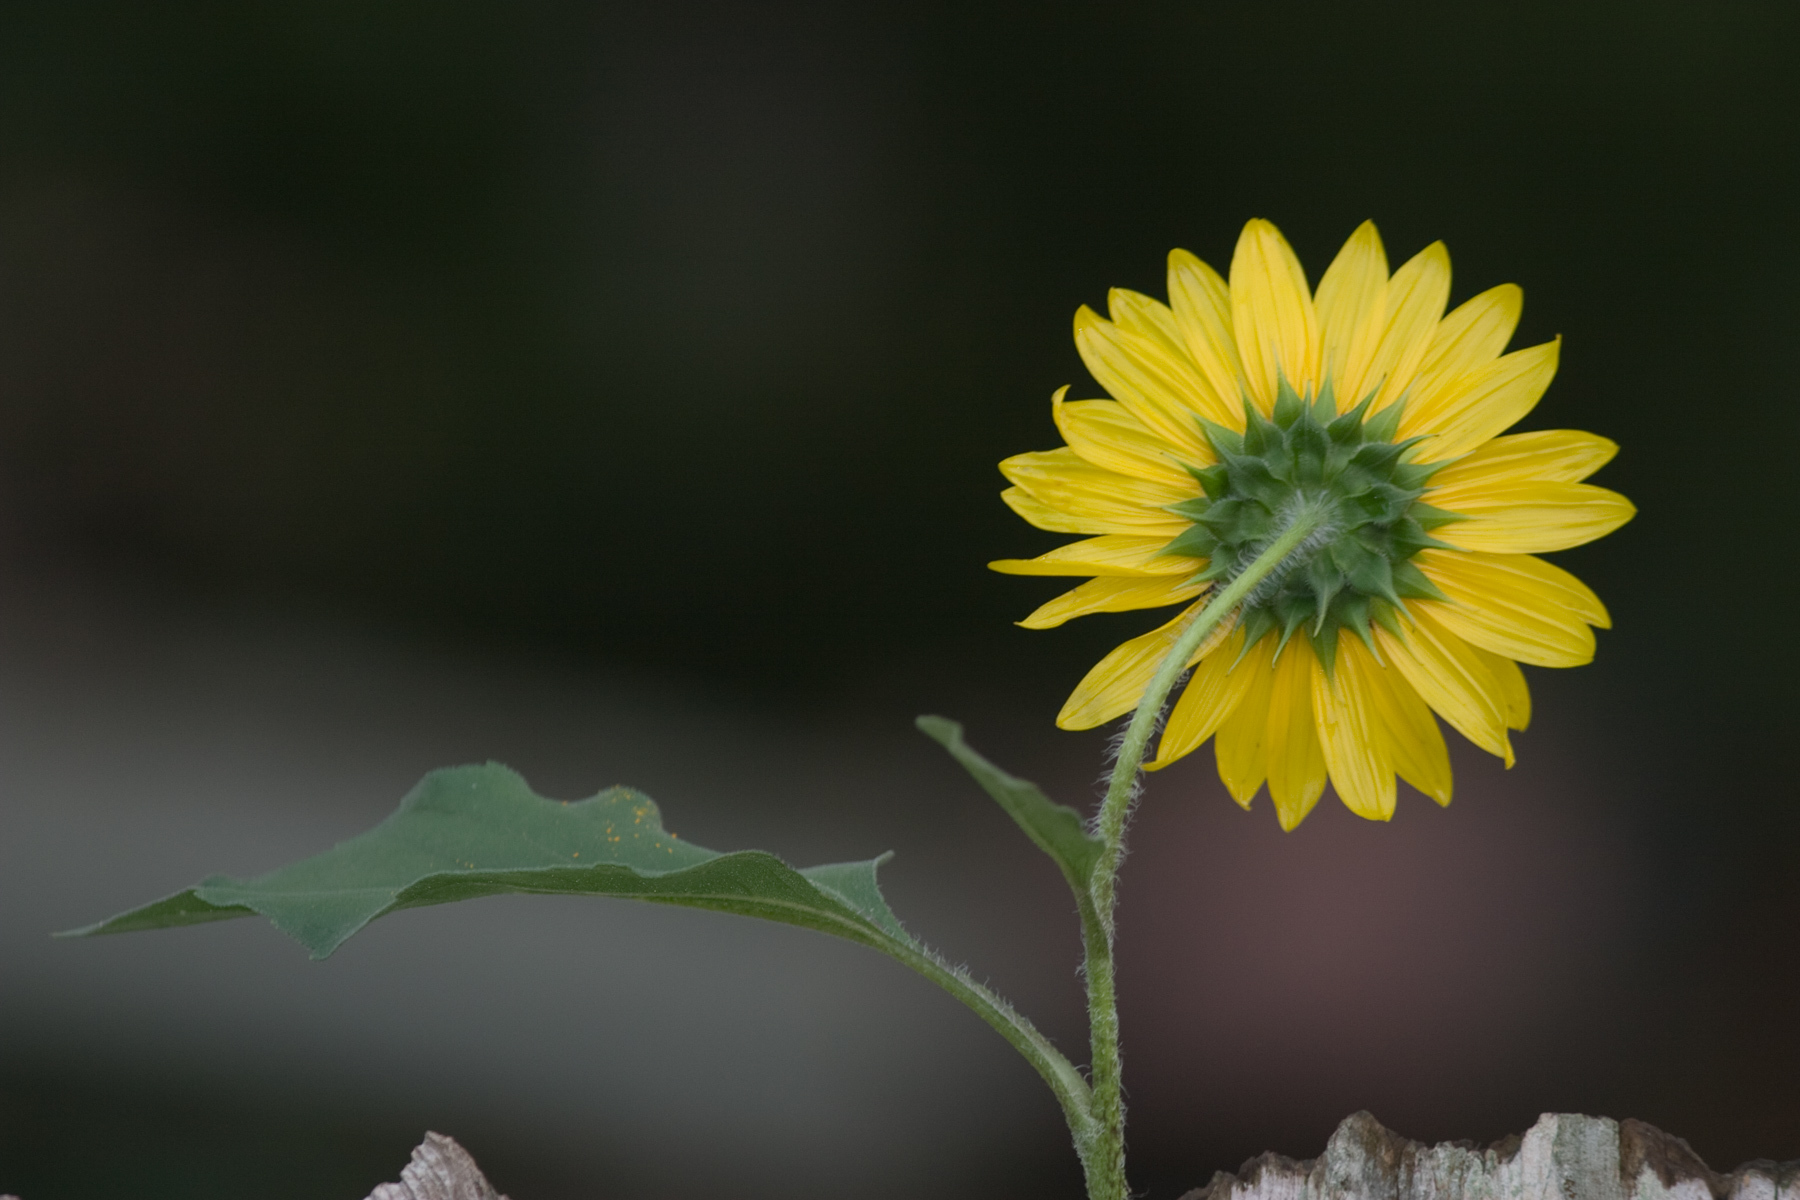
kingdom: Plantae
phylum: Tracheophyta
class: Magnoliopsida
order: Asterales
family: Asteraceae
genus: Helianthus
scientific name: Helianthus annuus
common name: Sunflower
